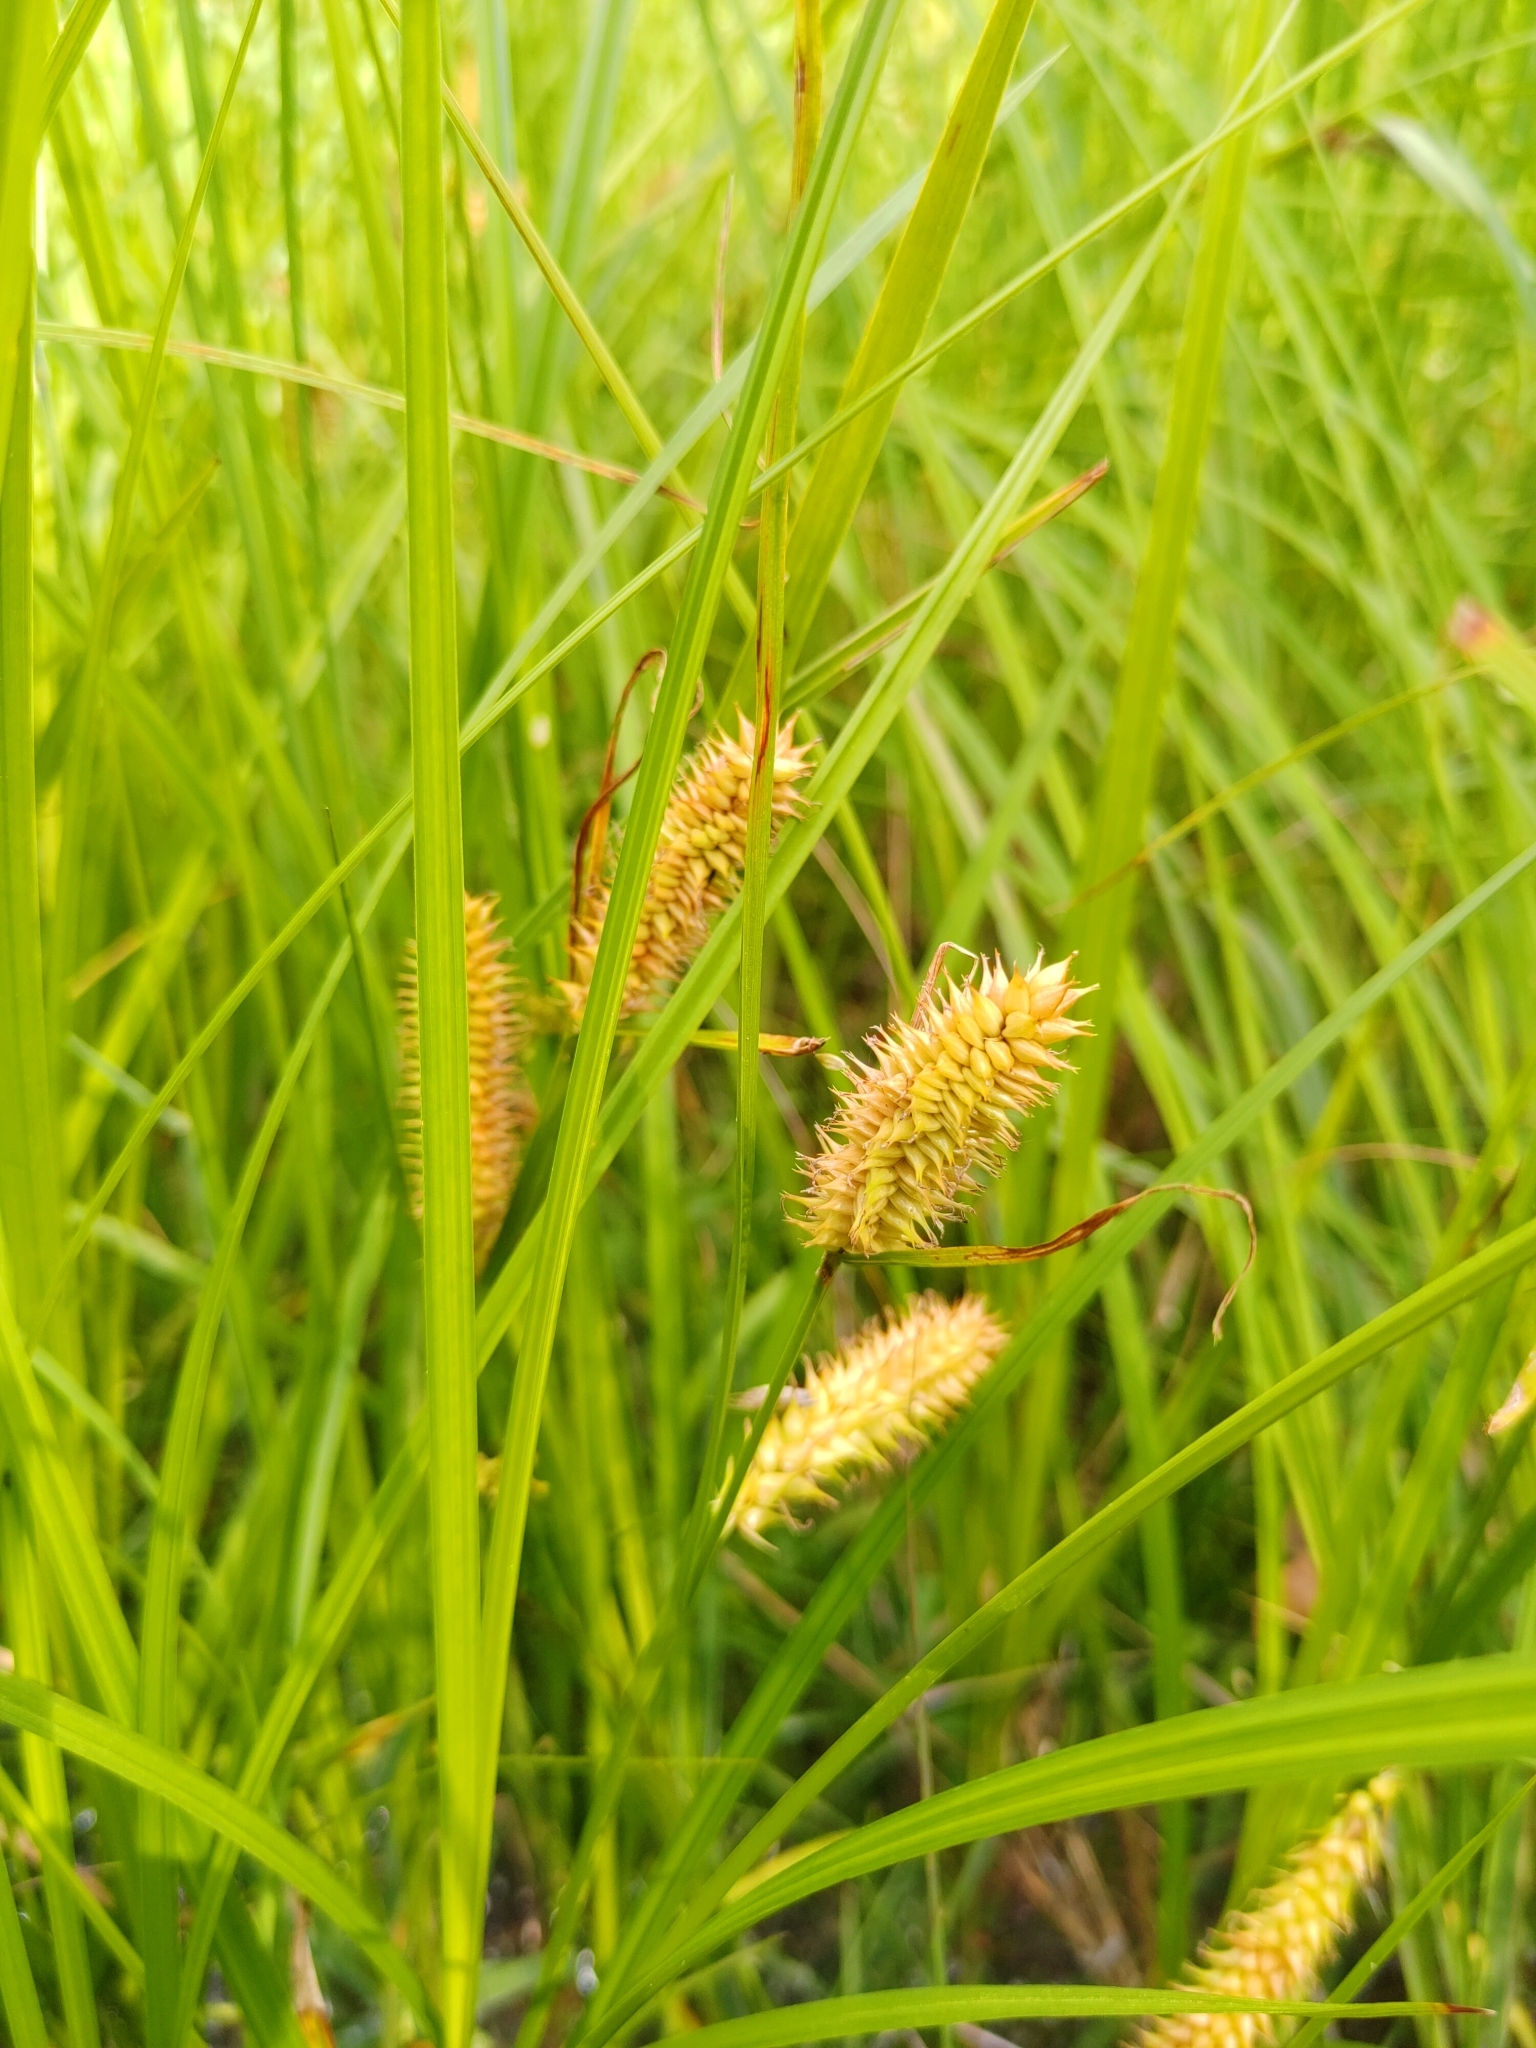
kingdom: Plantae
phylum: Tracheophyta
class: Liliopsida
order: Poales
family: Cyperaceae
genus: Carex
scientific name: Carex vesicaria
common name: Bladder-sedge
